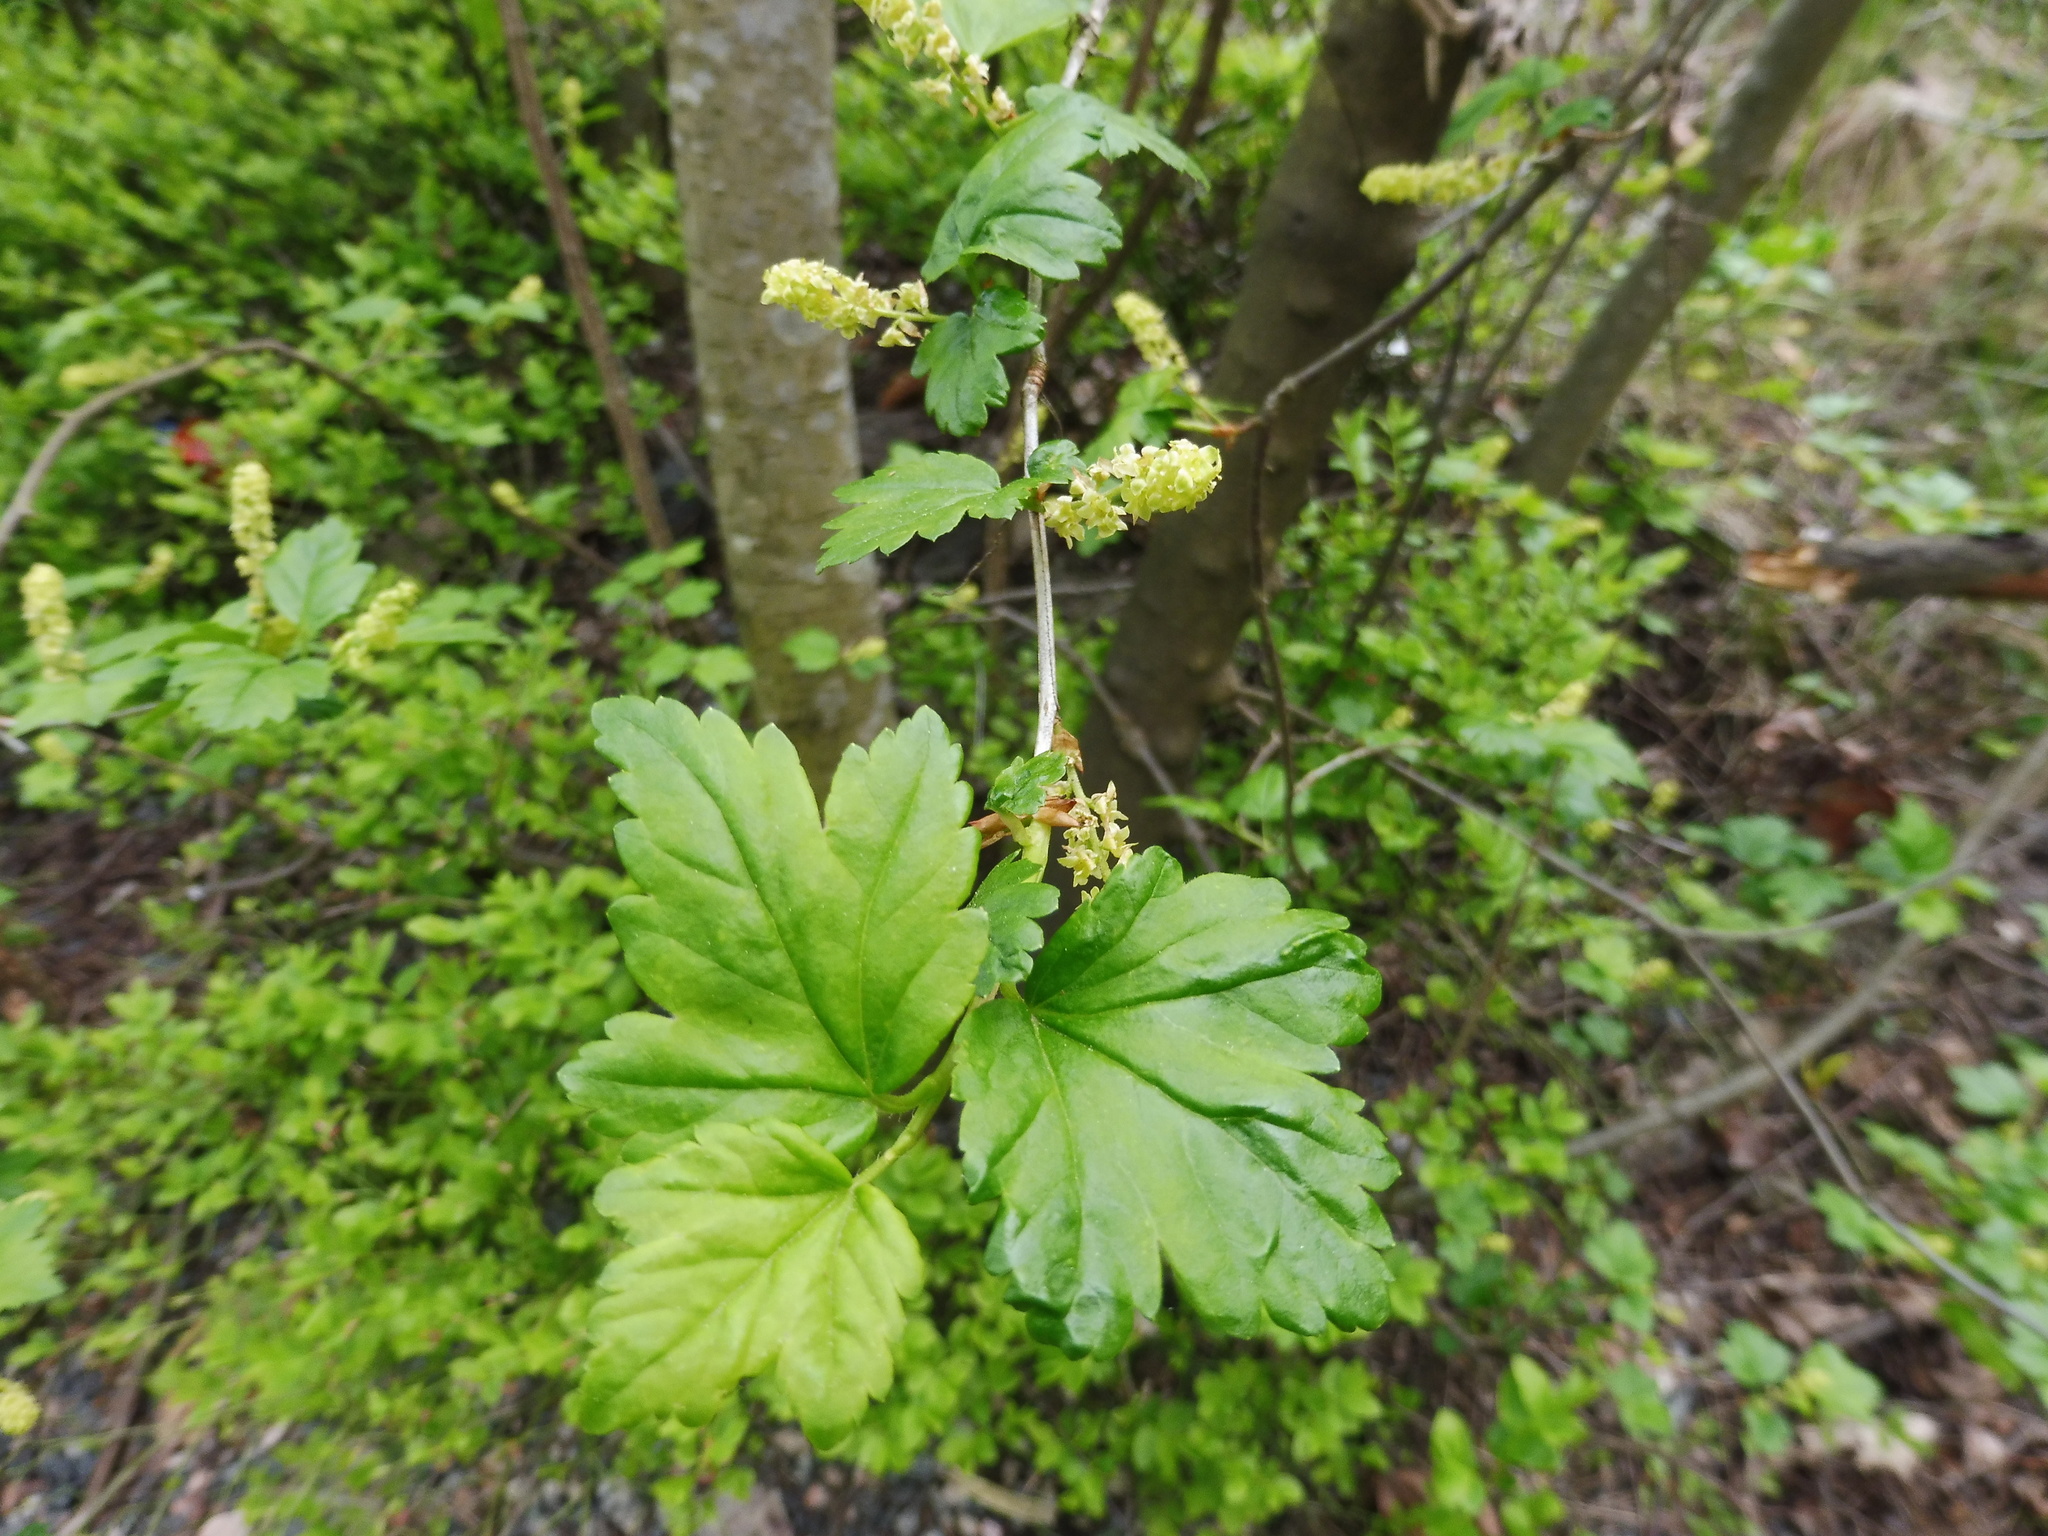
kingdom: Plantae
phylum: Tracheophyta
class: Magnoliopsida
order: Saxifragales
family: Grossulariaceae
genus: Ribes
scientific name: Ribes alpinum
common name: Alpine currant
